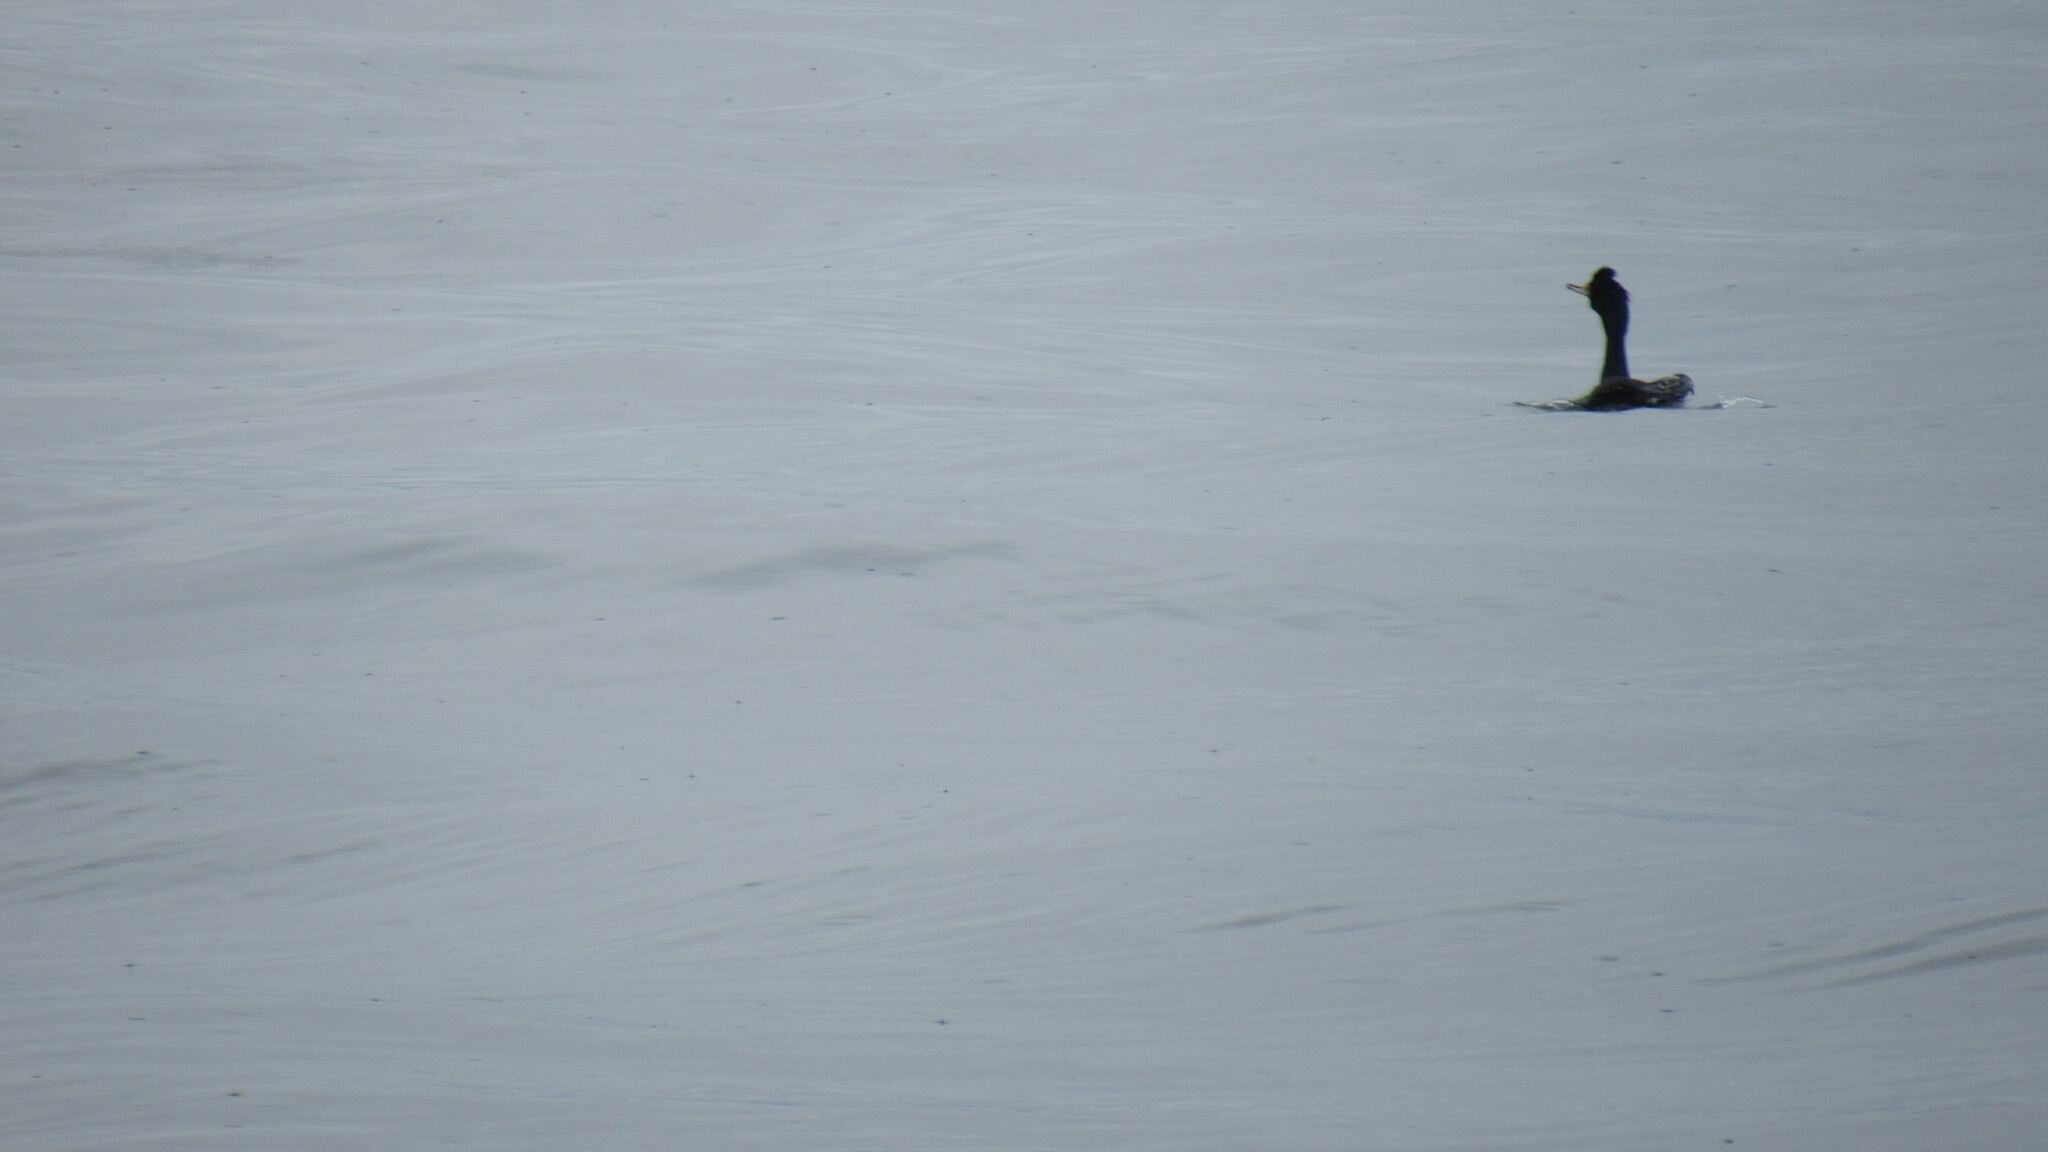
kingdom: Animalia
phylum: Chordata
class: Aves
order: Suliformes
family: Phalacrocoracidae
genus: Phalacrocorax
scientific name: Phalacrocorax urile
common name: Red-faced cormorant
